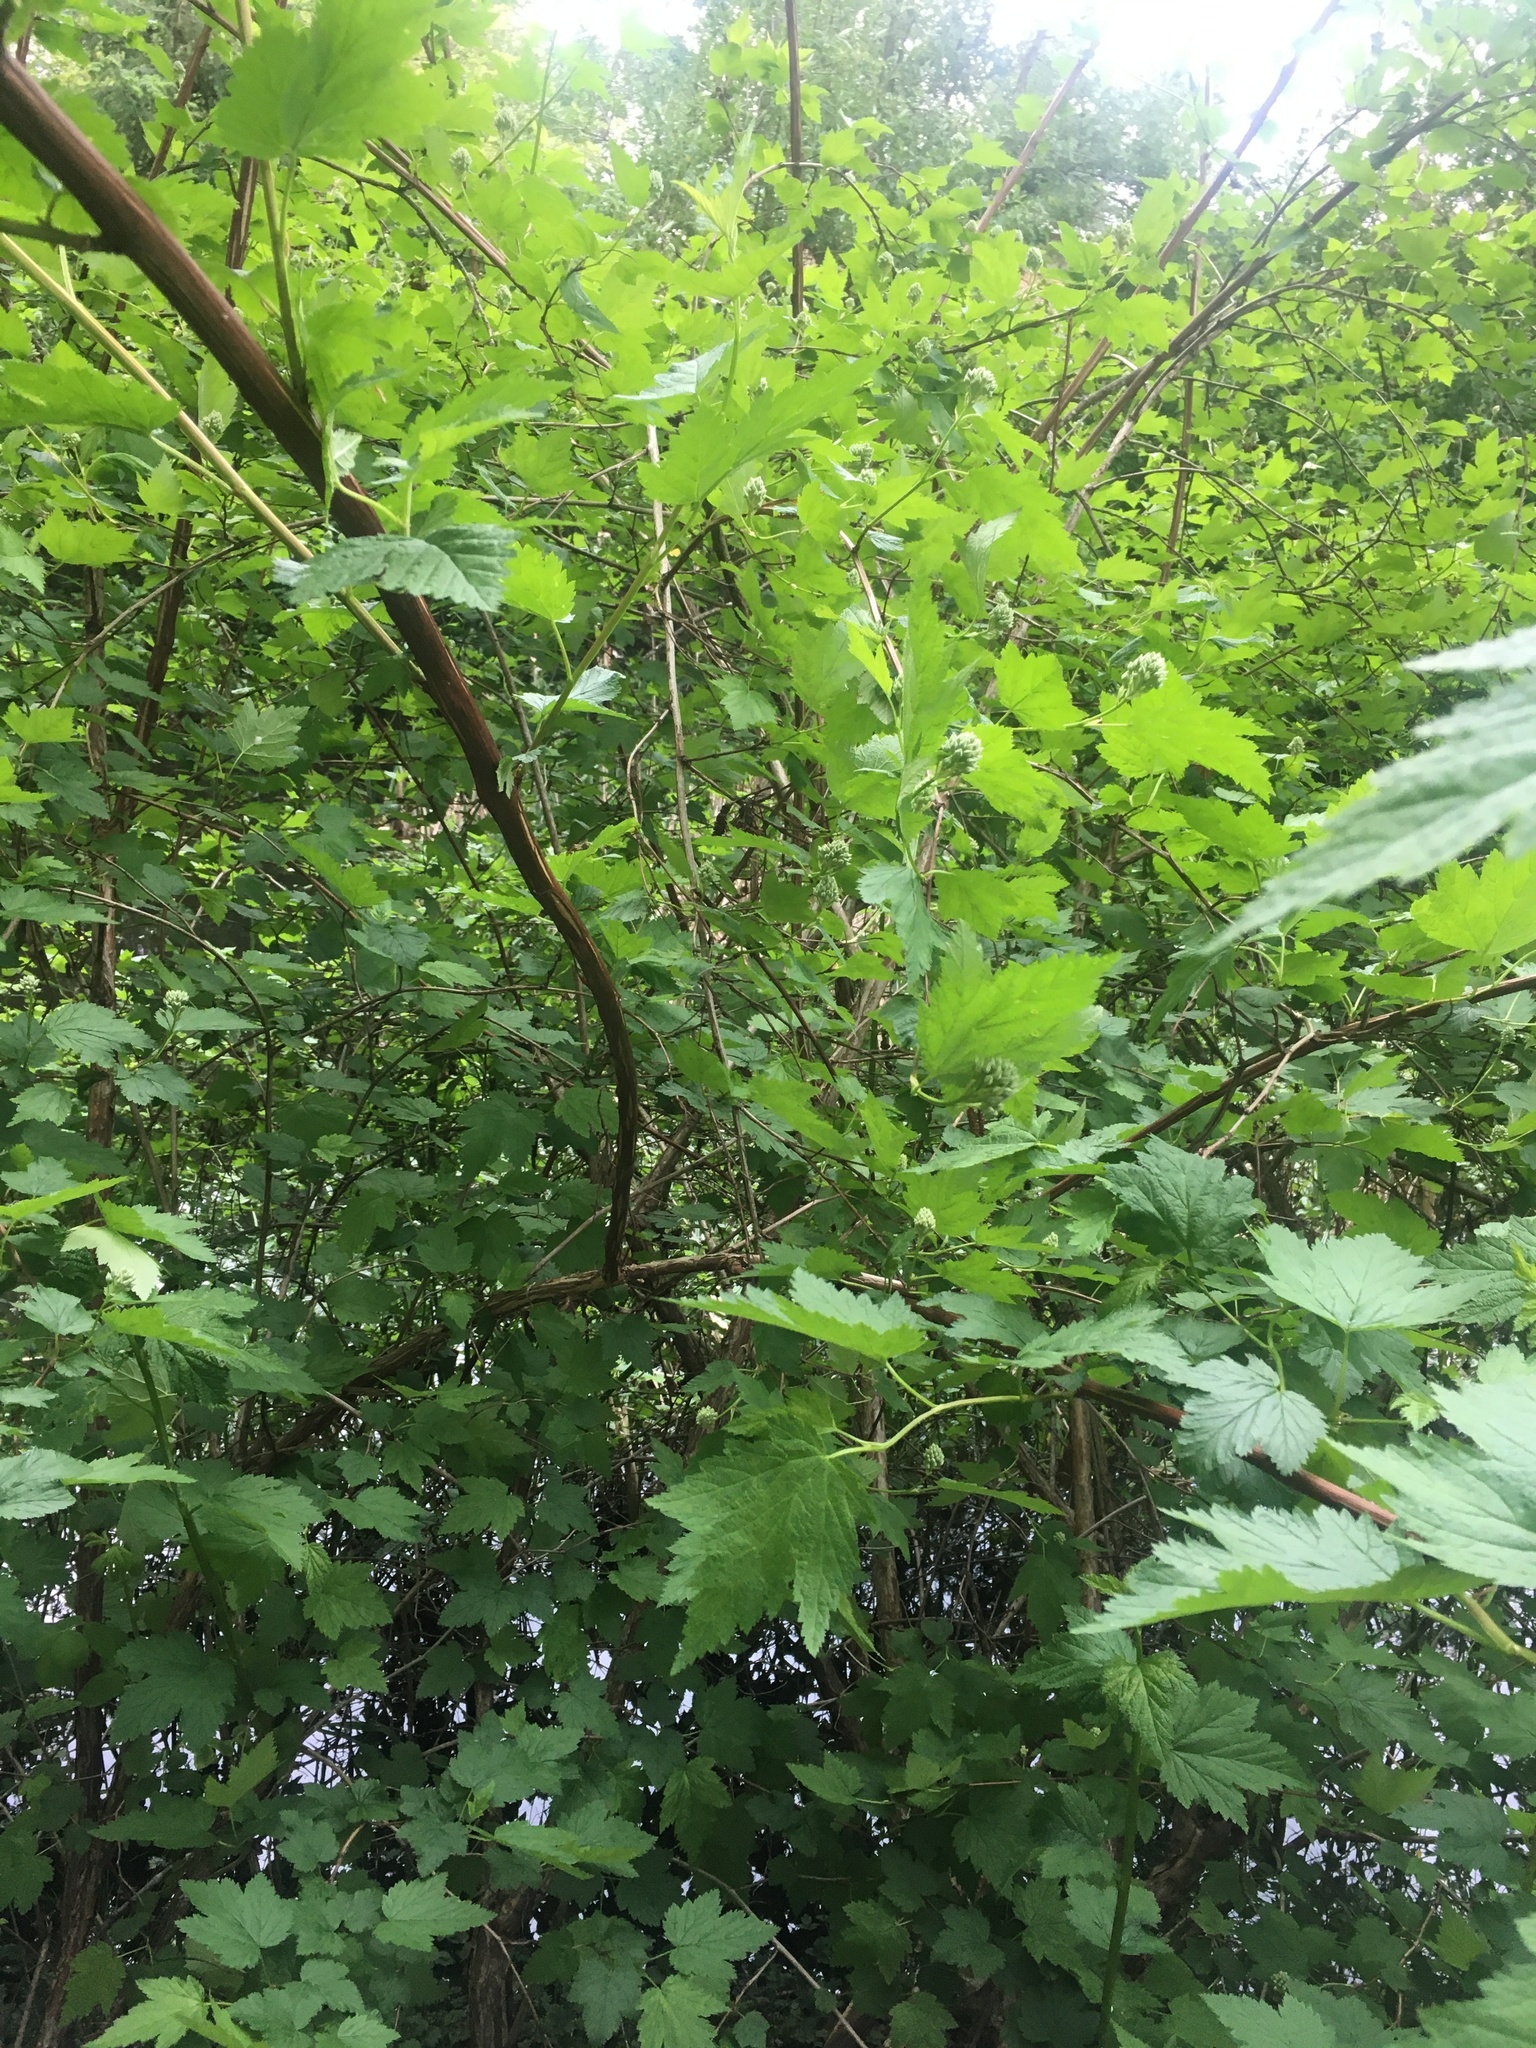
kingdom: Plantae
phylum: Tracheophyta
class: Magnoliopsida
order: Rosales
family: Rosaceae
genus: Physocarpus
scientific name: Physocarpus capitatus
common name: Pacific ninebark
